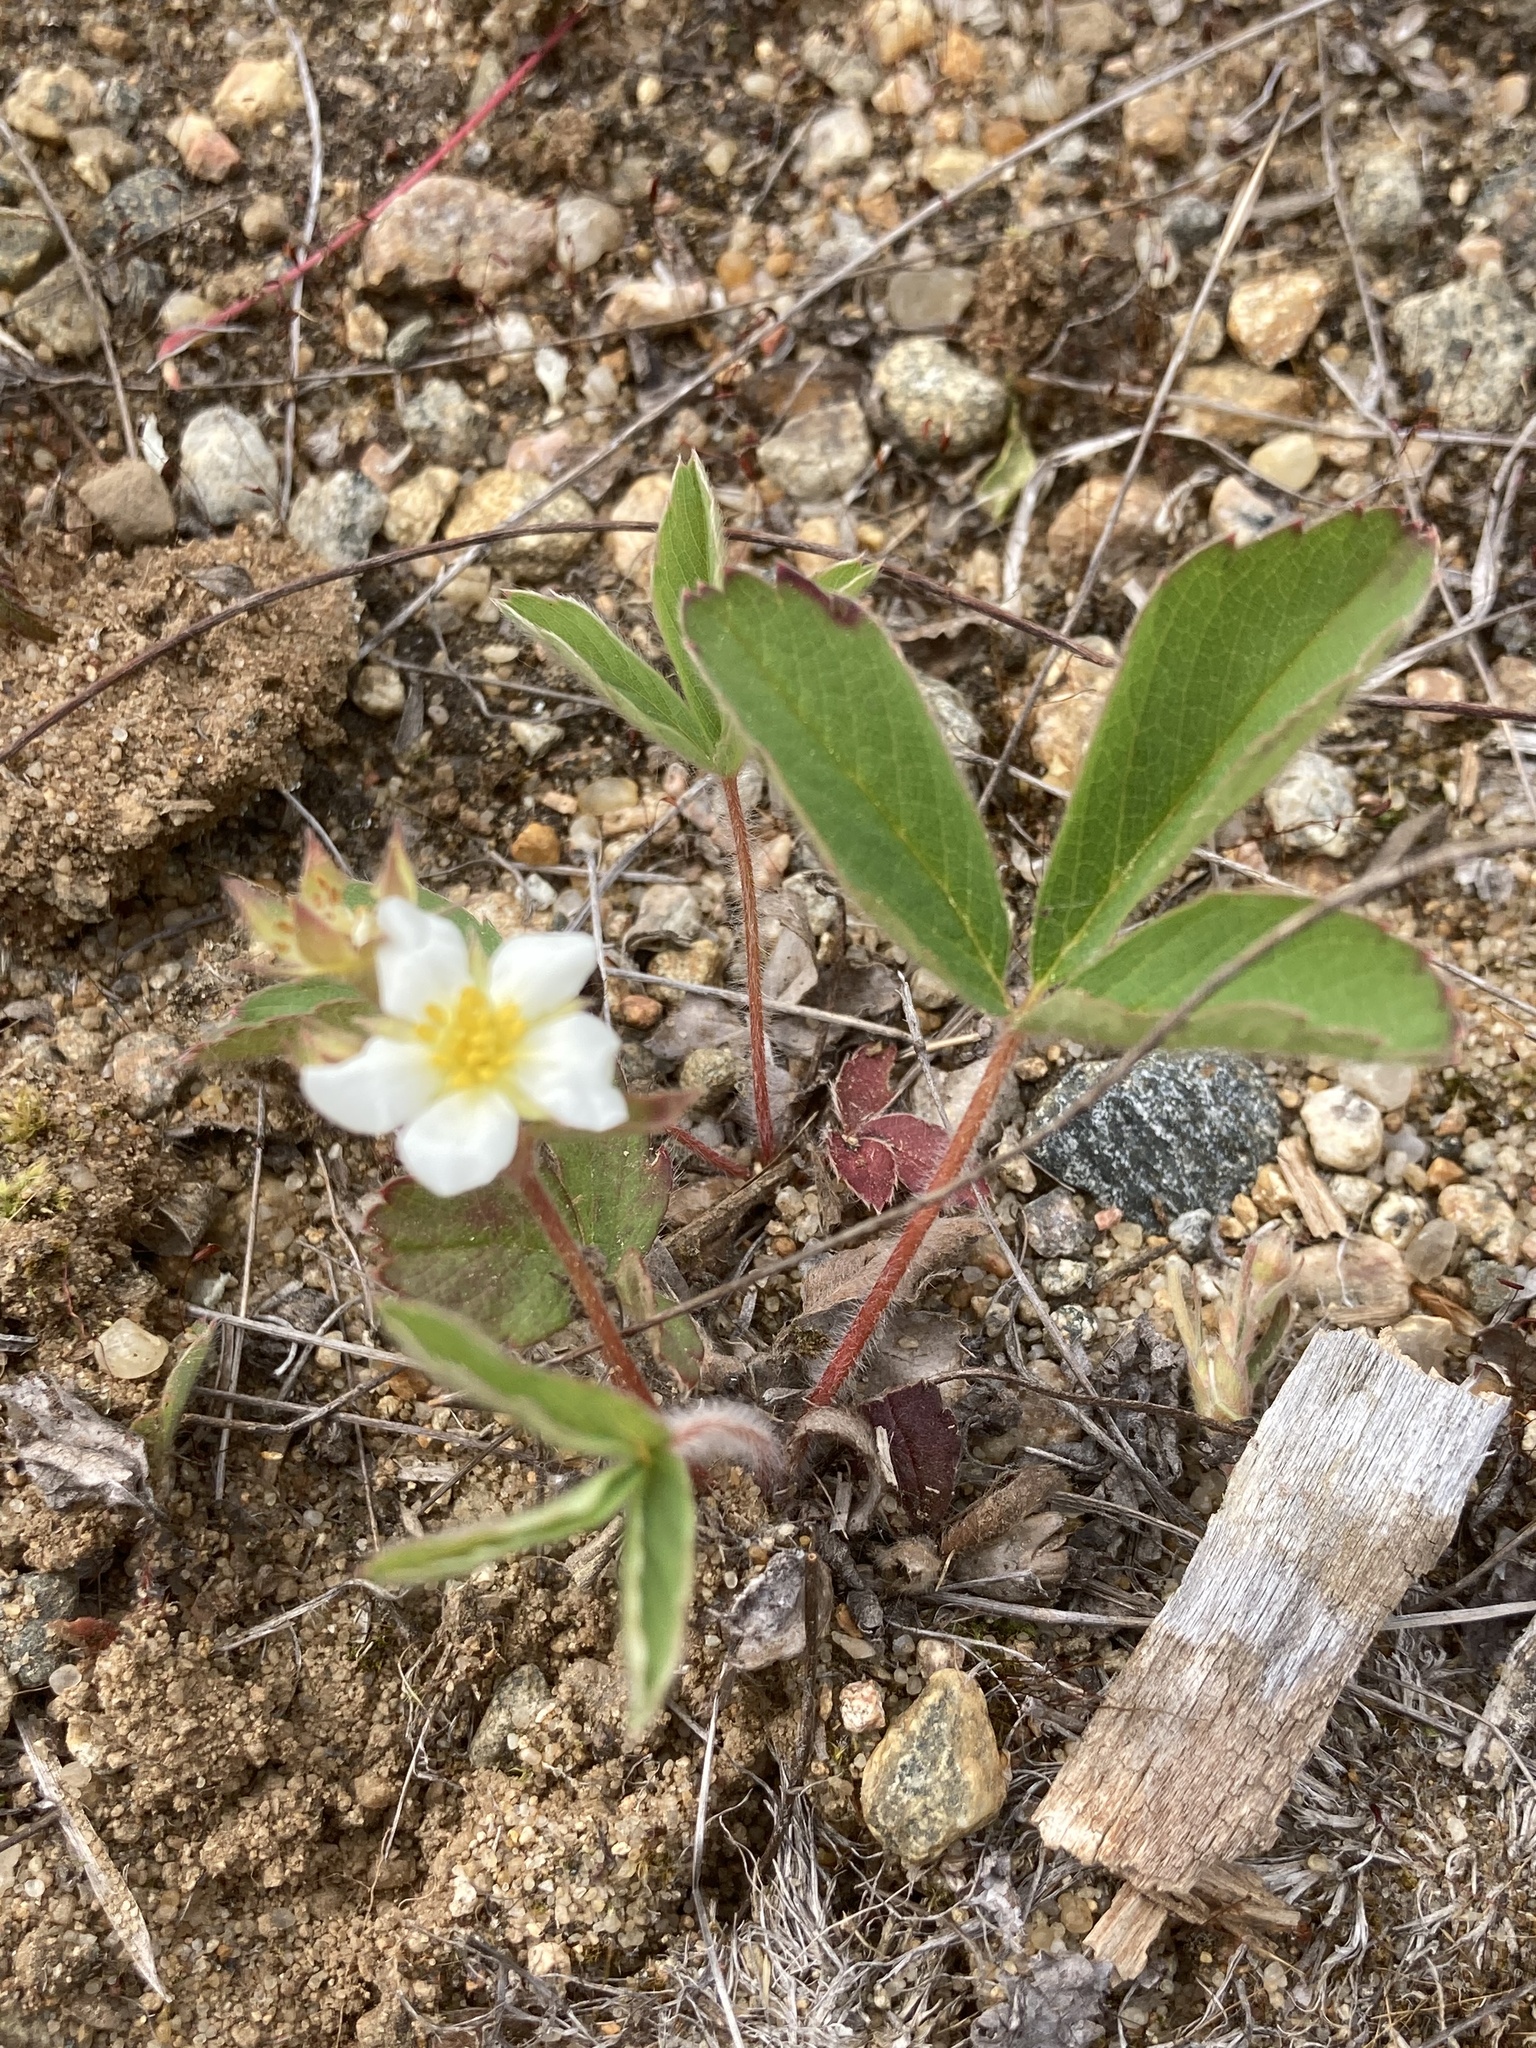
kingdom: Plantae
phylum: Tracheophyta
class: Magnoliopsida
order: Rosales
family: Rosaceae
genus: Fragaria
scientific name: Fragaria virginiana
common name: Thickleaved wild strawberry
